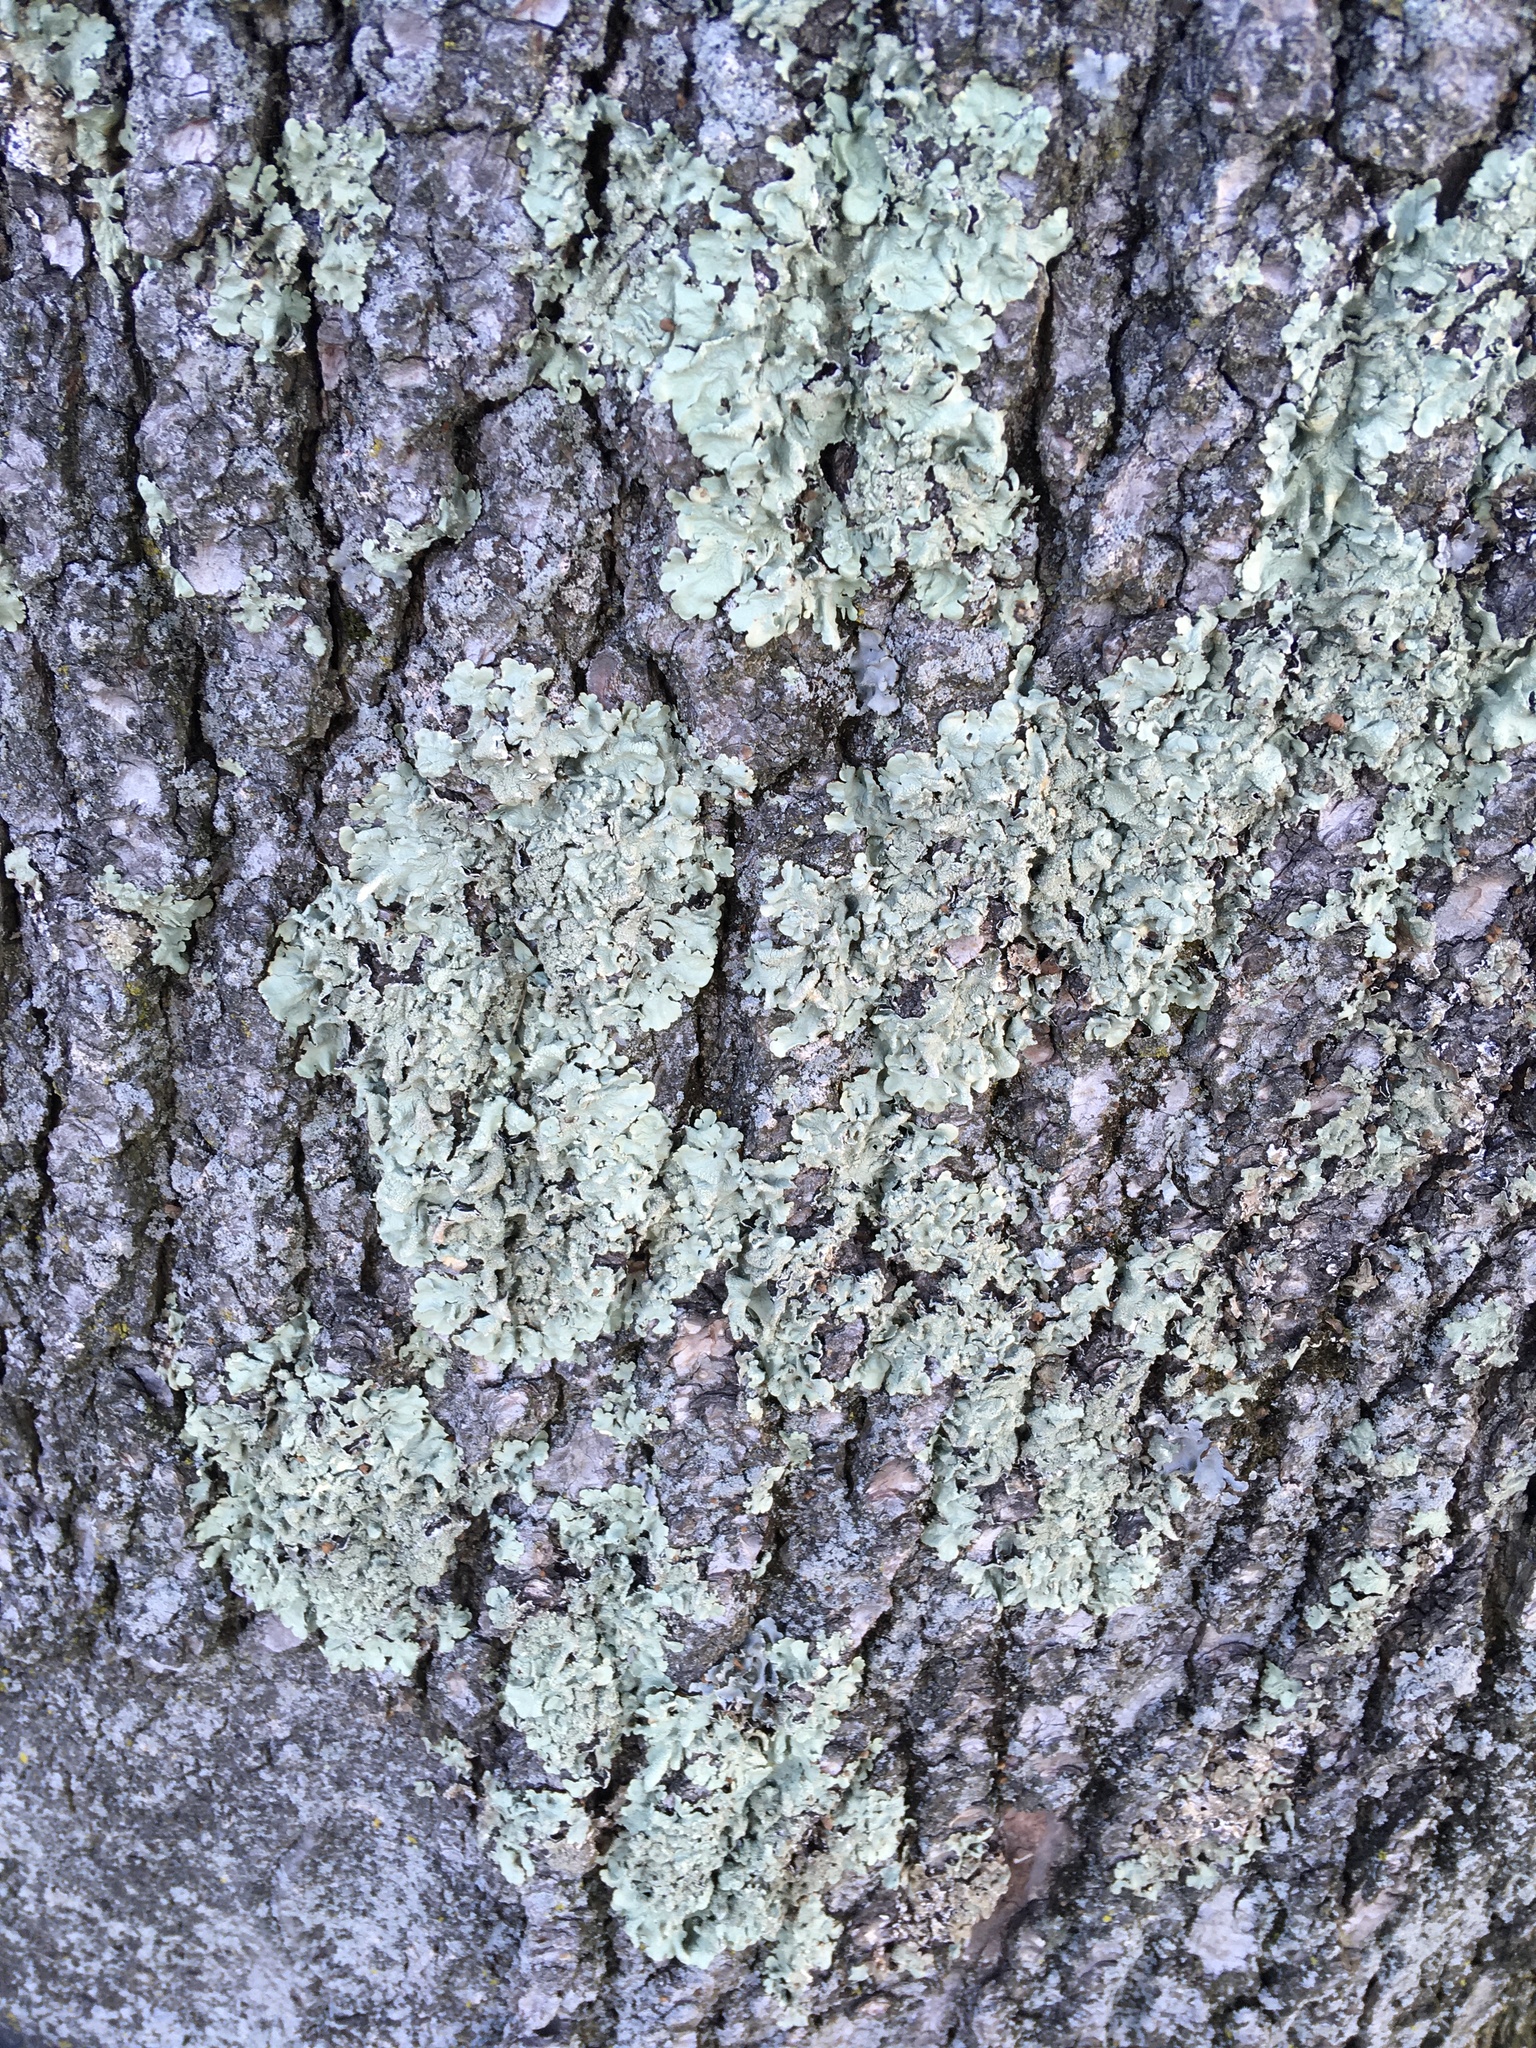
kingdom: Fungi
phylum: Ascomycota
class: Lecanoromycetes
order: Lecanorales
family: Parmeliaceae
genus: Flavoparmelia
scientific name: Flavoparmelia caperata
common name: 40-mile per hour lichen
